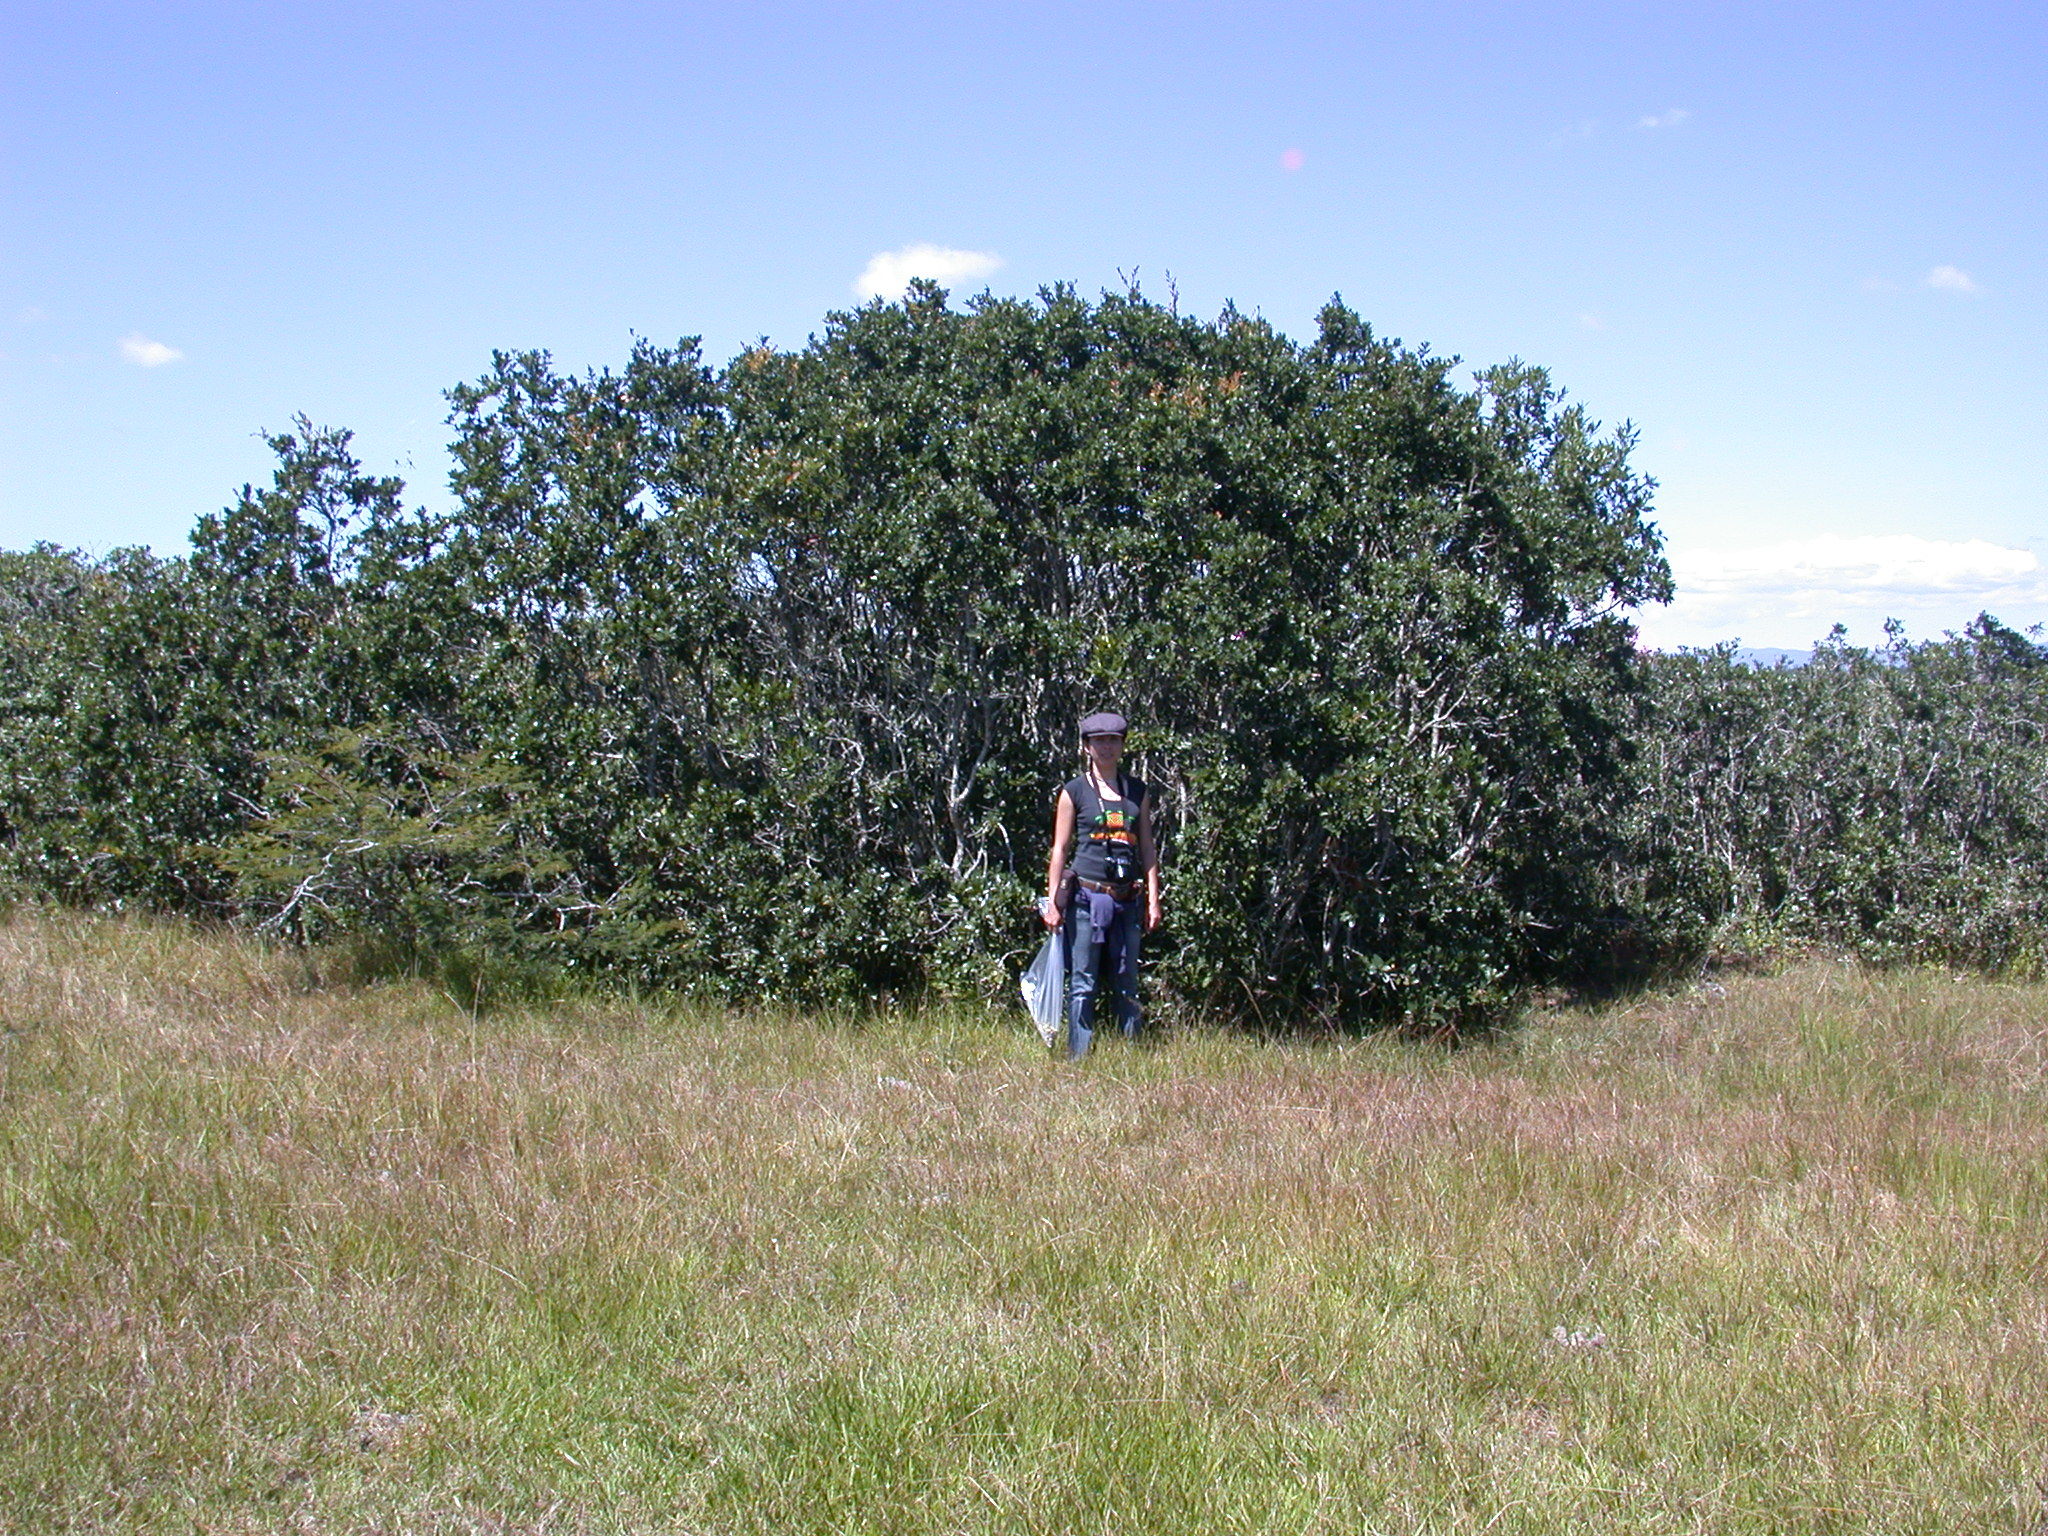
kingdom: Plantae
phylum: Tracheophyta
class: Magnoliopsida
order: Fagales
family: Fagaceae
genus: Quercus
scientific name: Quercus sebifera
